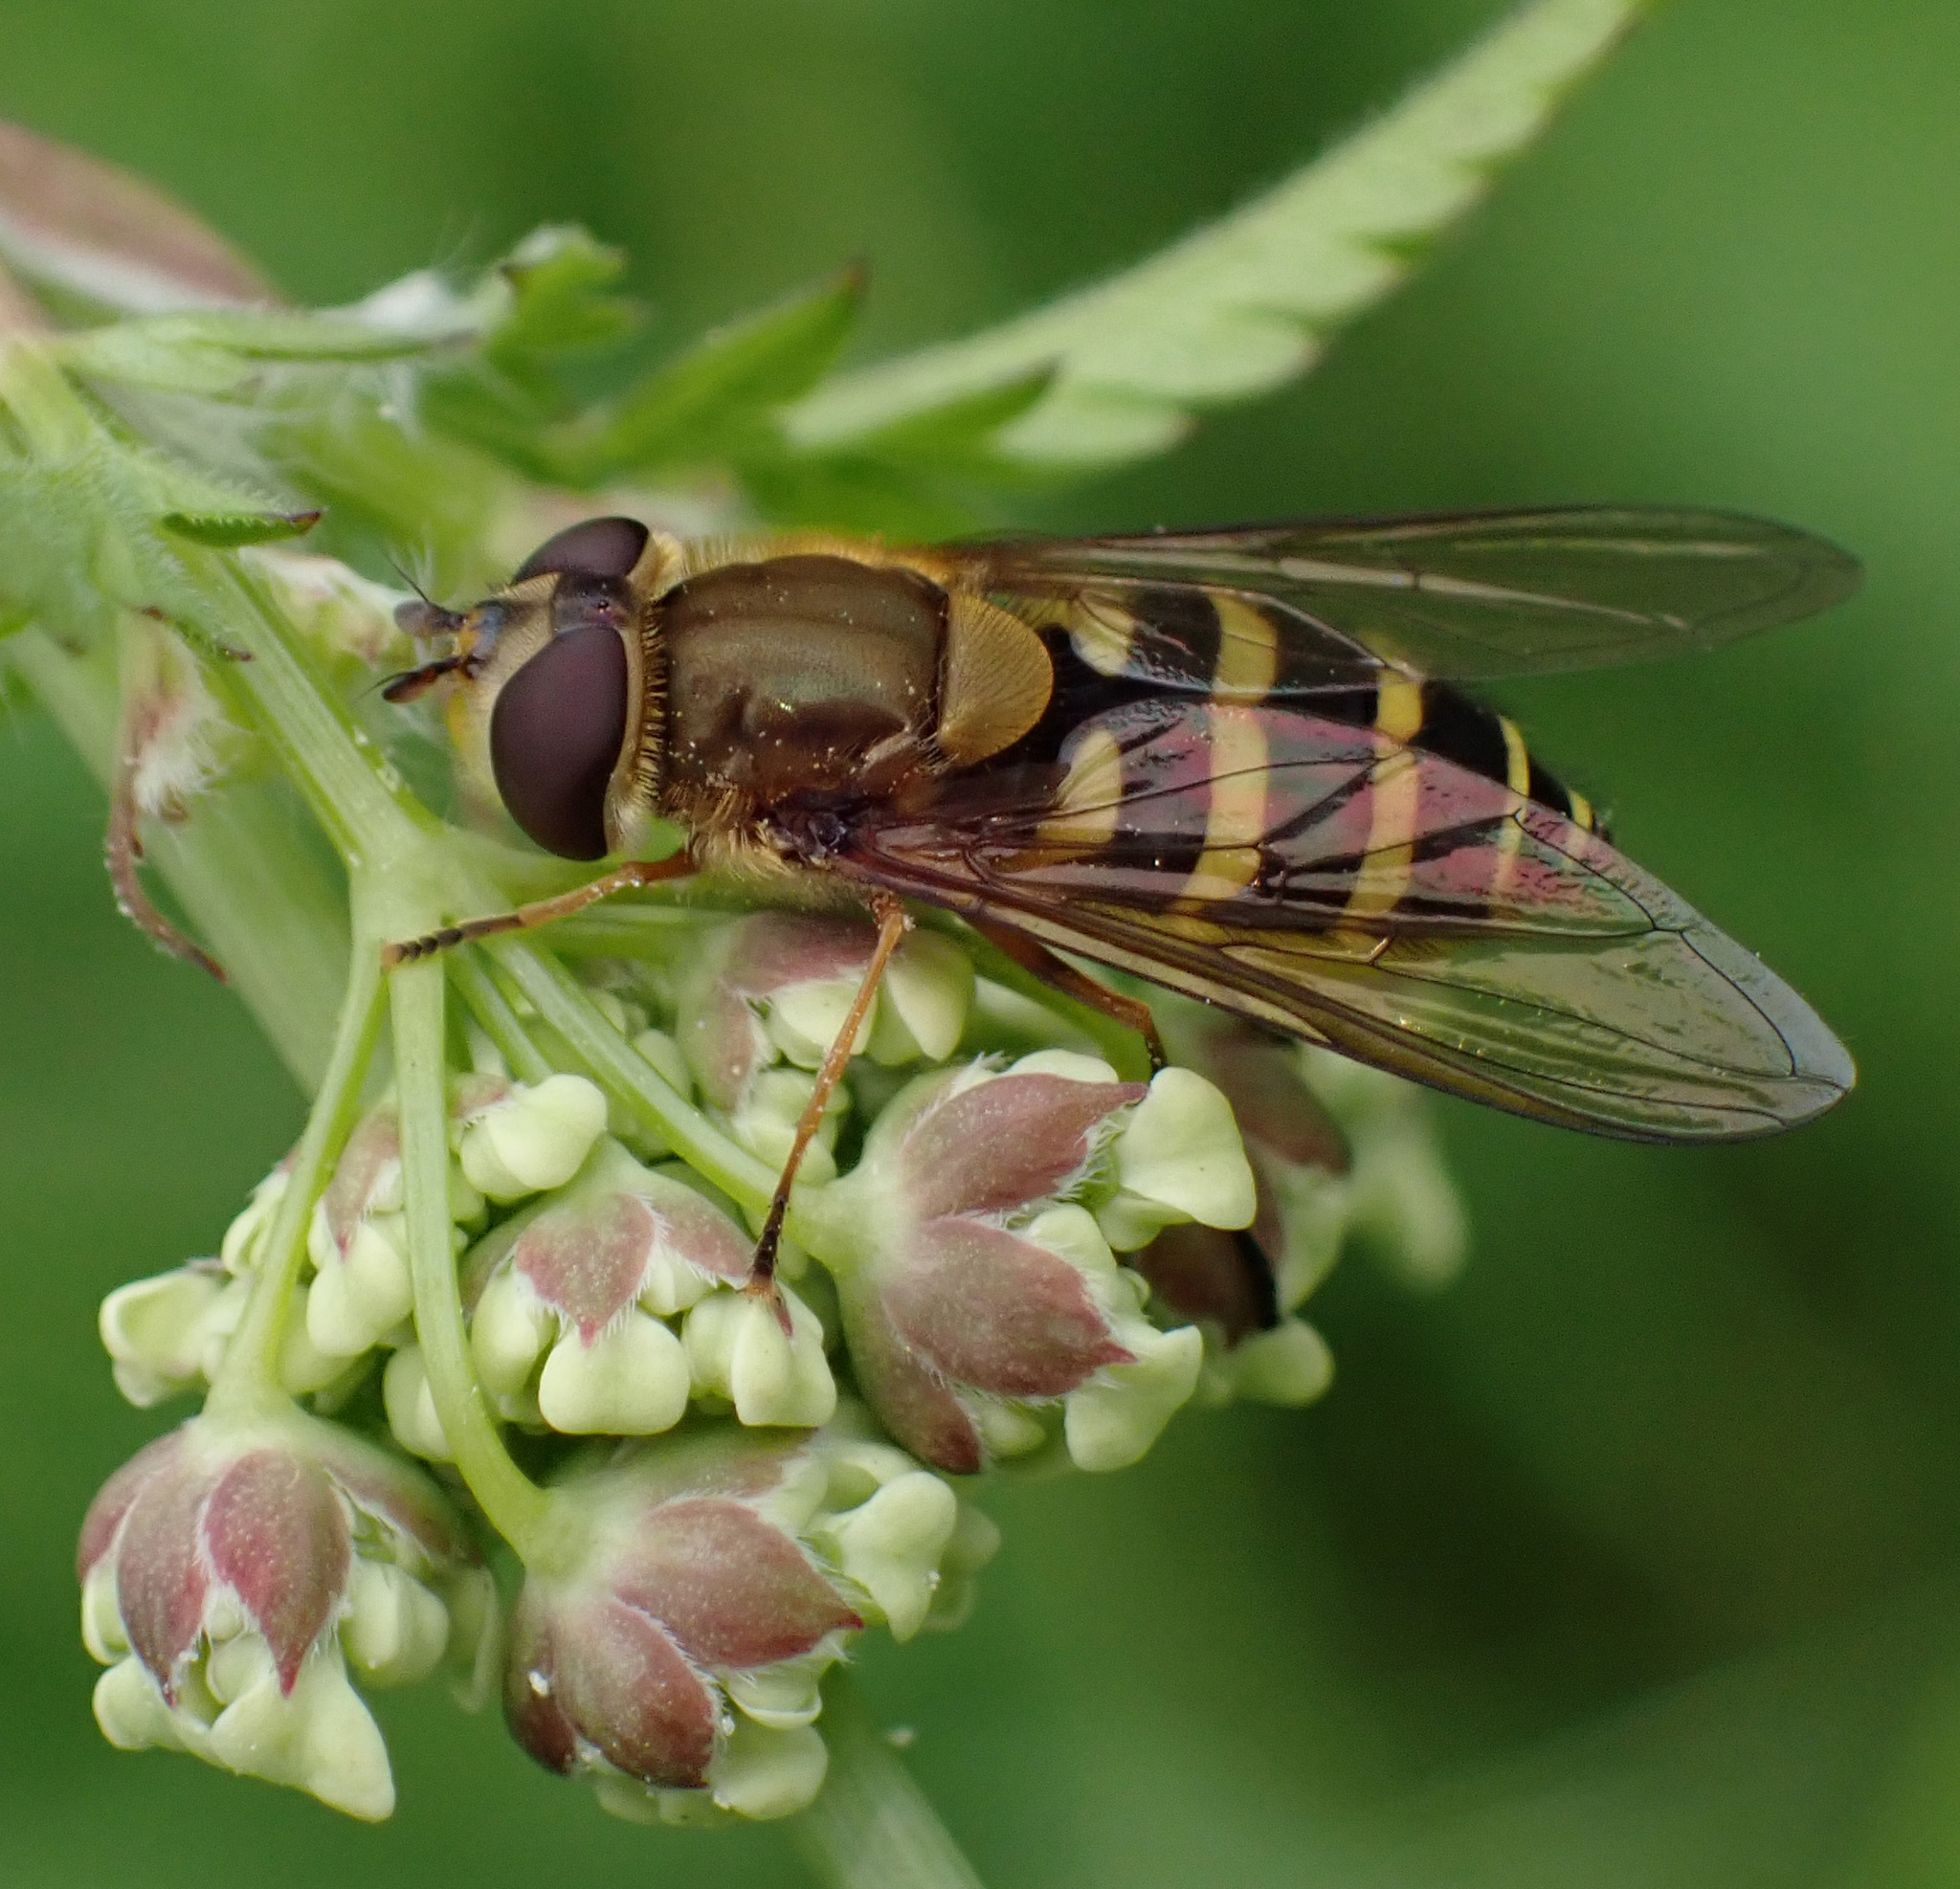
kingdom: Animalia
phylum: Arthropoda
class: Insecta
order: Diptera
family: Syrphidae
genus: Syrphus
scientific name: Syrphus ribesii
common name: Common flower fly
